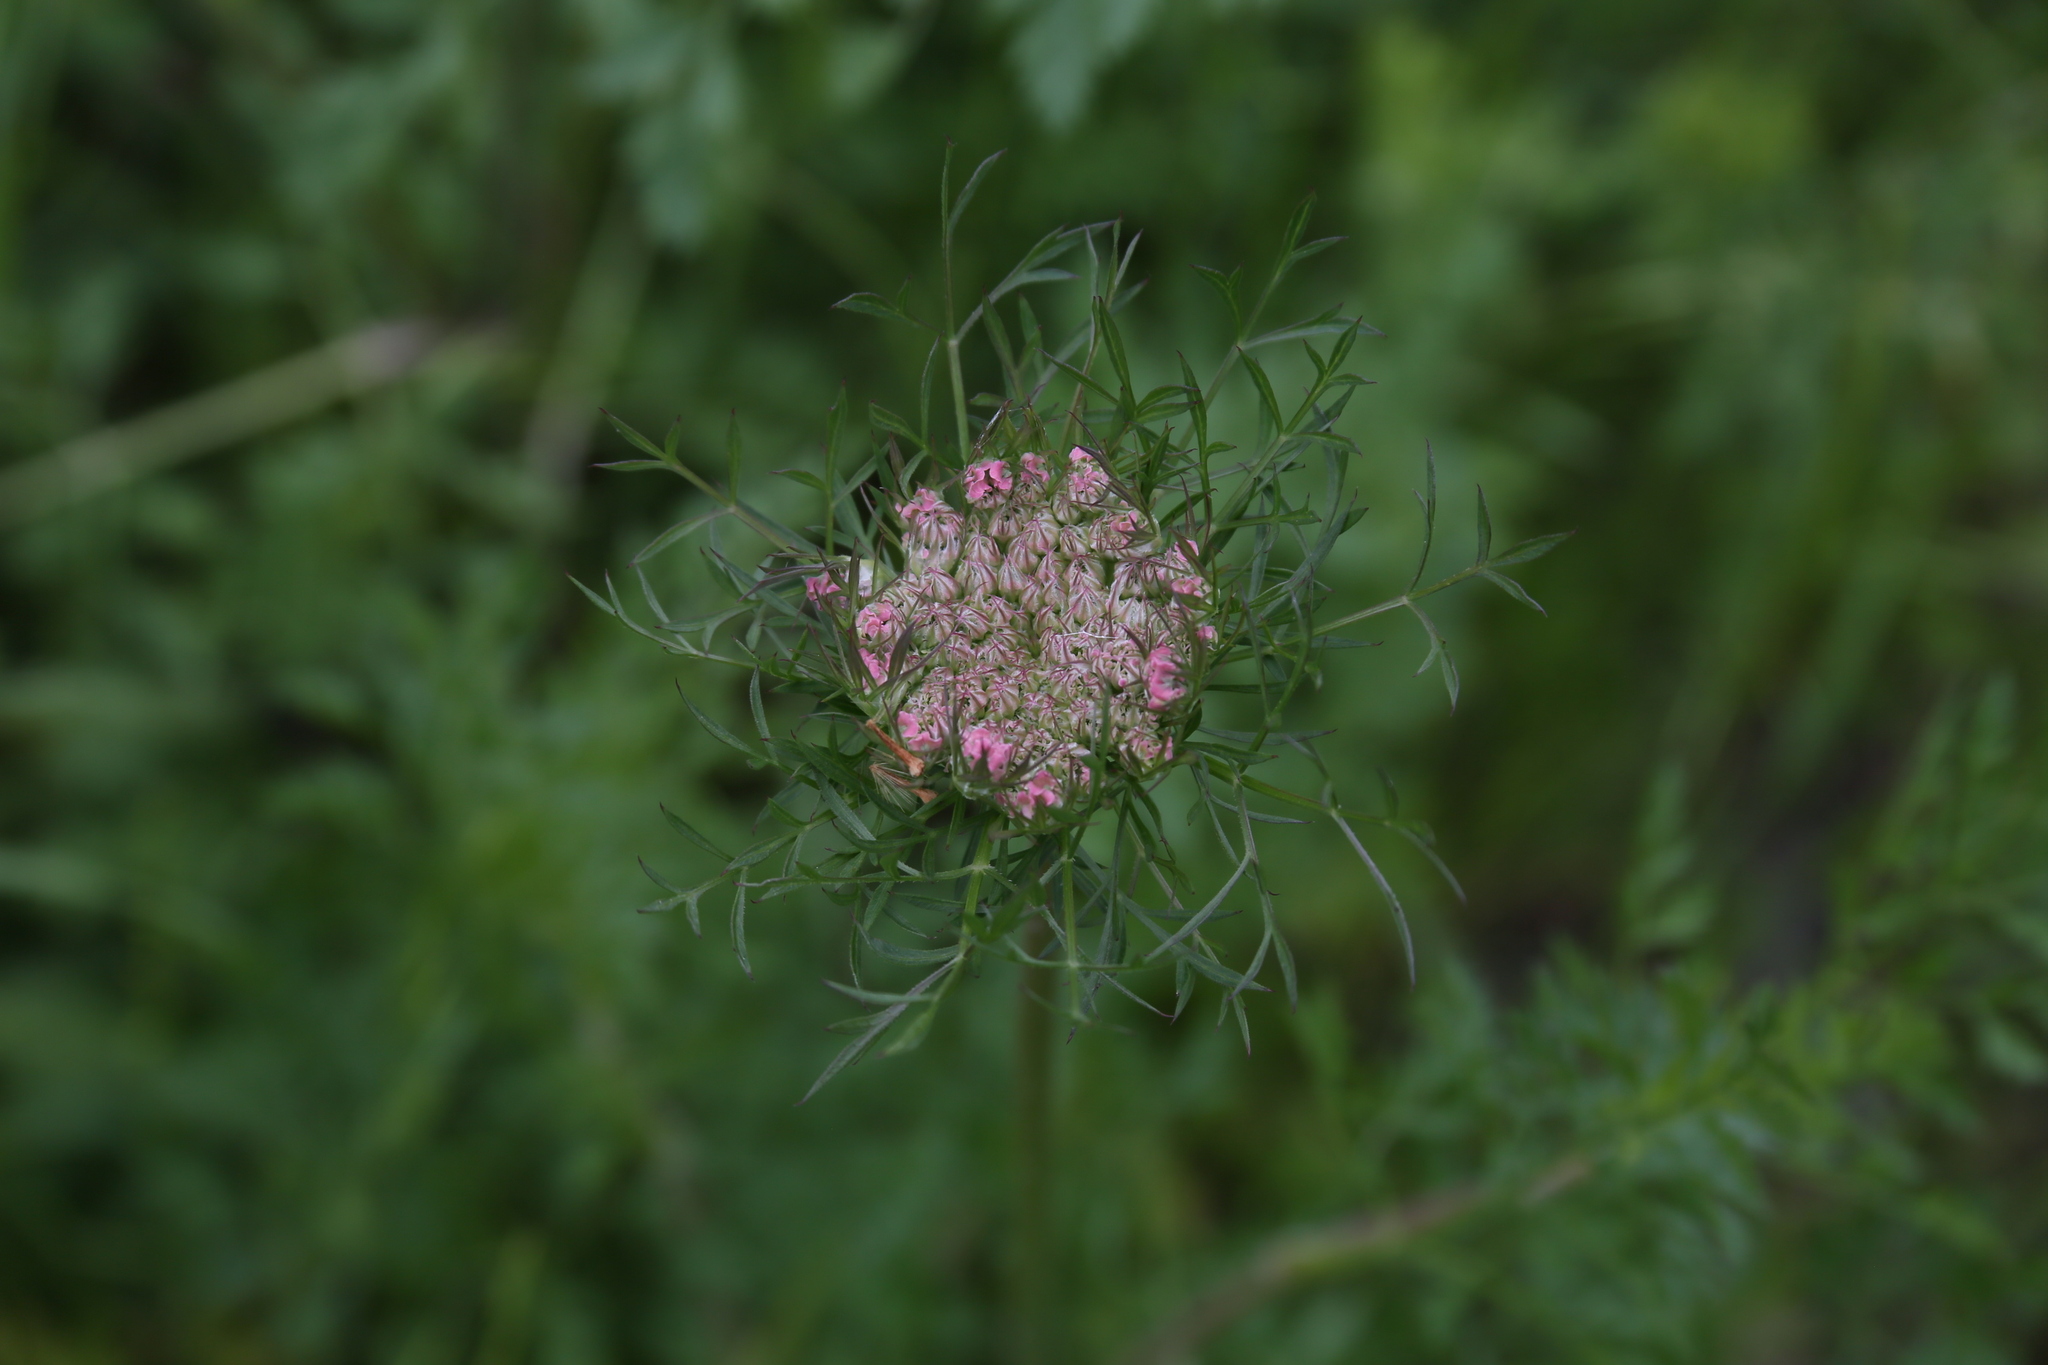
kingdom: Plantae
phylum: Tracheophyta
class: Magnoliopsida
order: Apiales
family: Apiaceae
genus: Daucus
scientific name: Daucus carota
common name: Wild carrot
